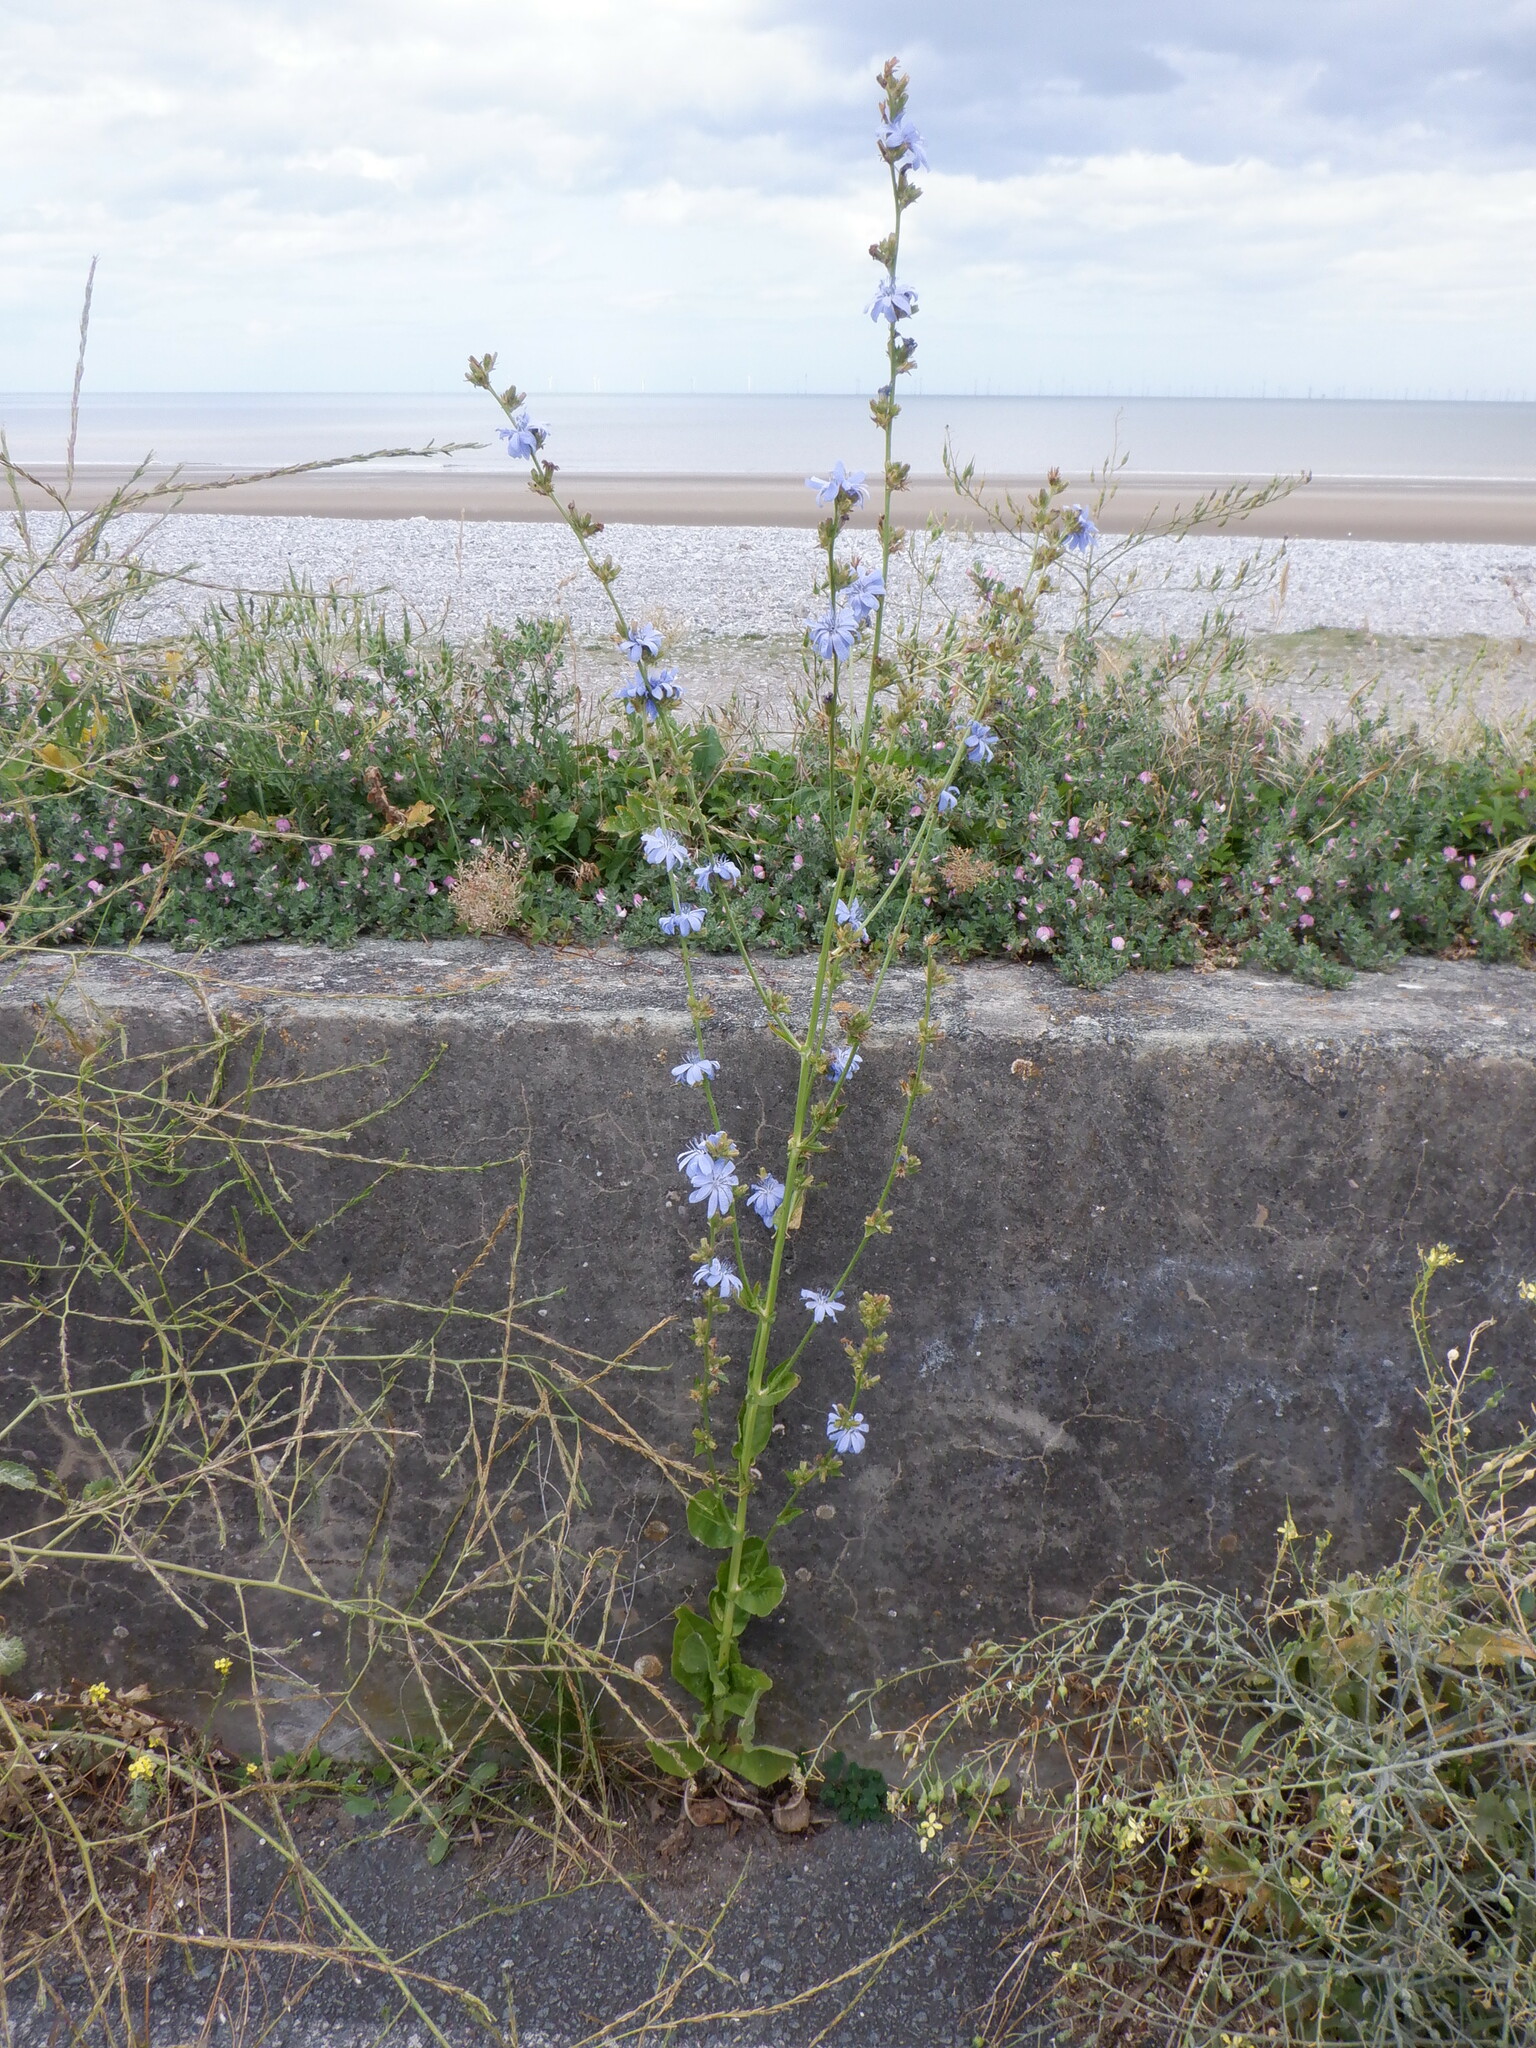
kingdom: Plantae
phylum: Tracheophyta
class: Magnoliopsida
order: Asterales
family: Asteraceae
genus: Cichorium
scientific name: Cichorium intybus
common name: Chicory
